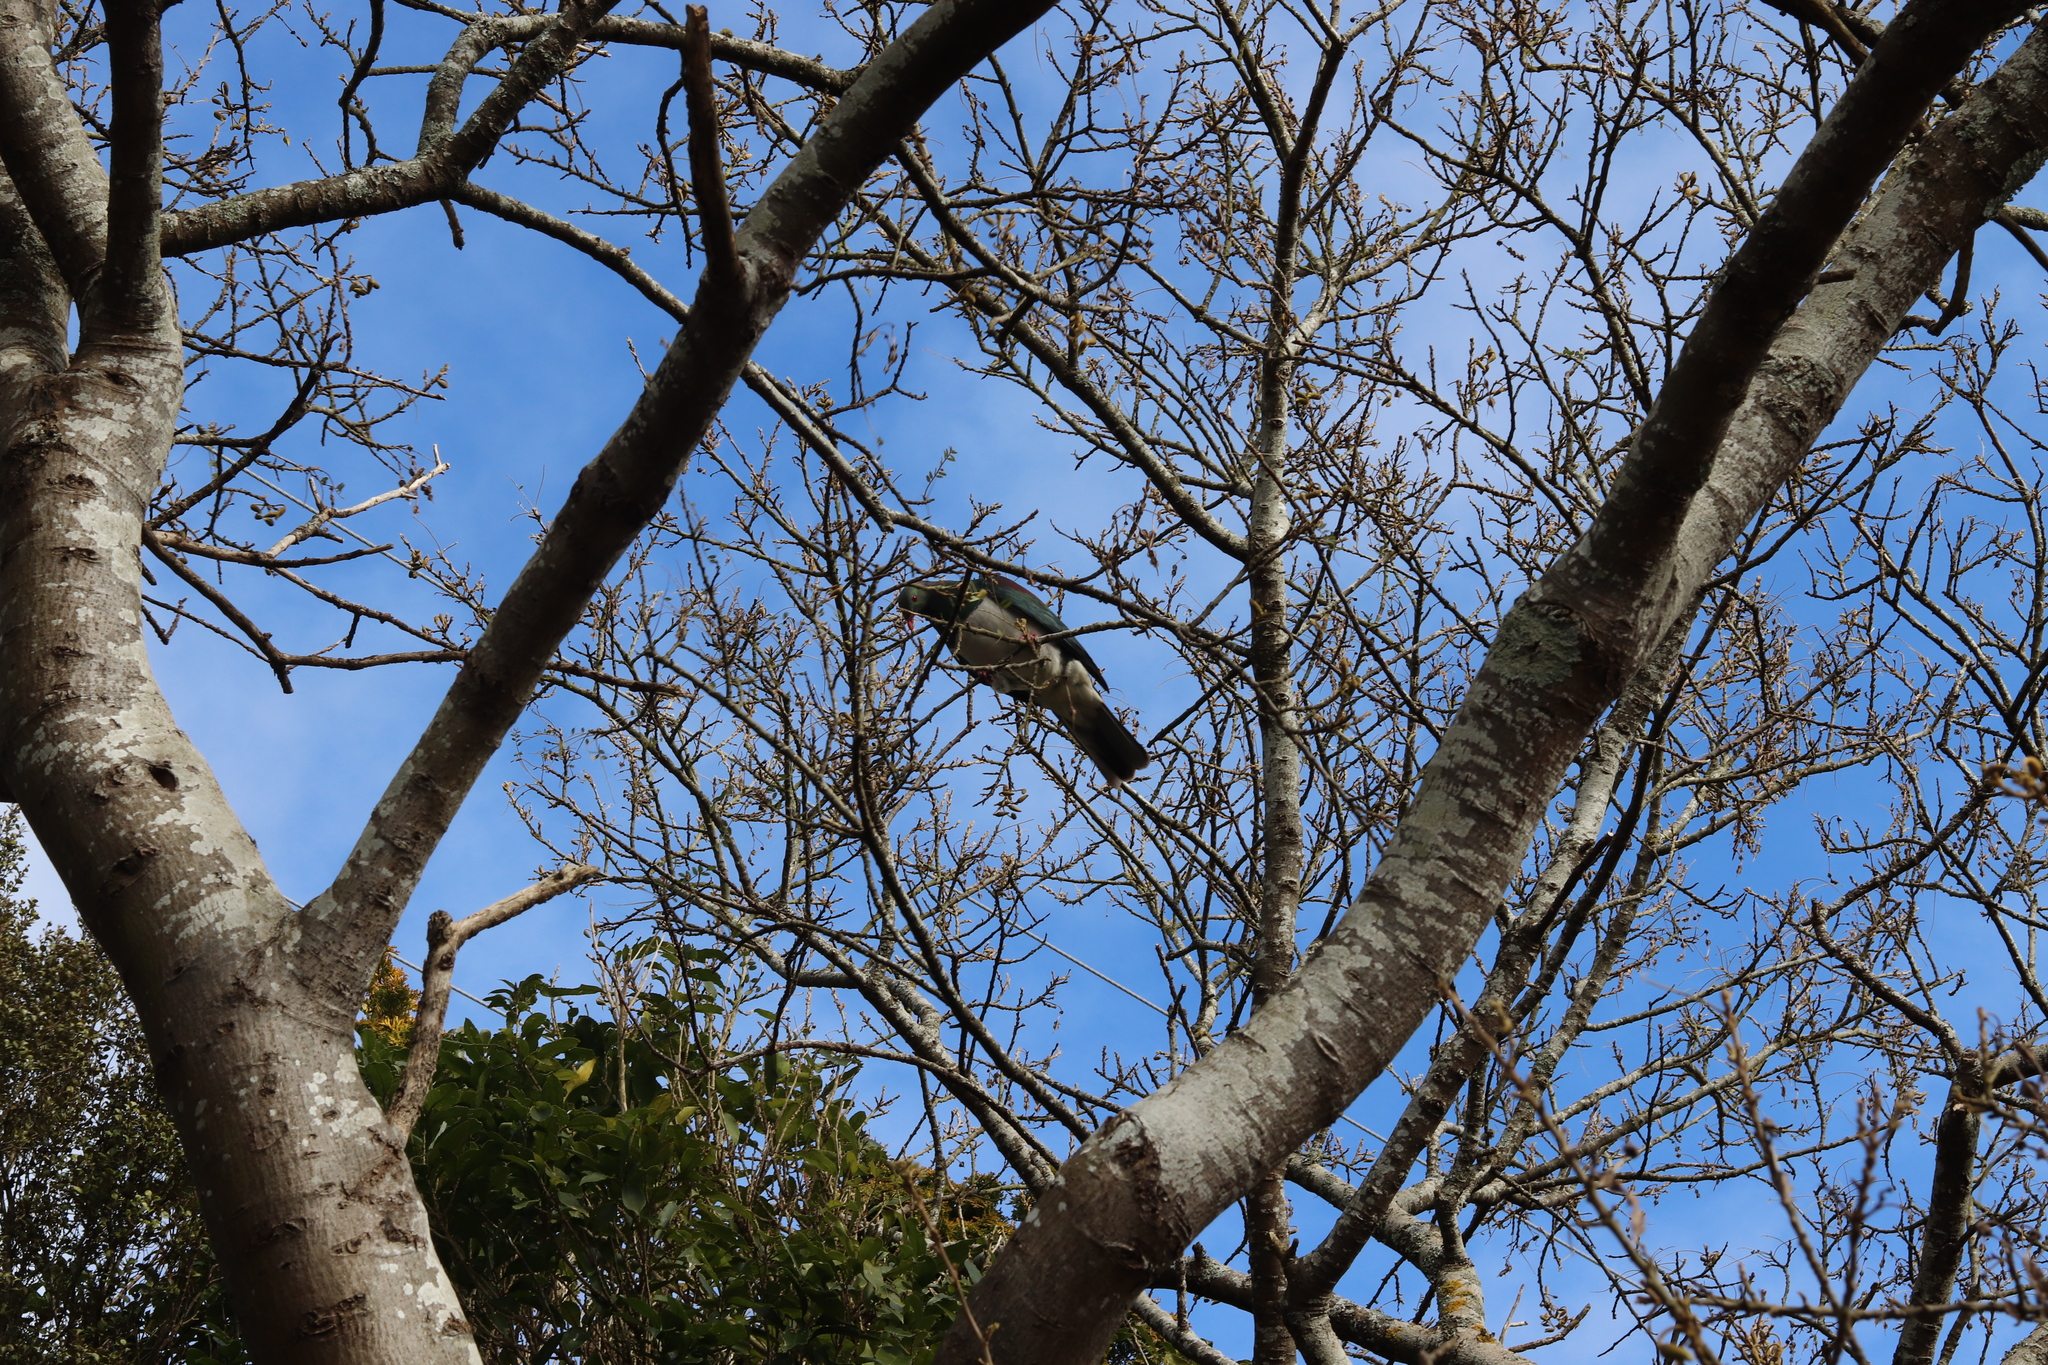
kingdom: Animalia
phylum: Chordata
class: Aves
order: Columbiformes
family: Columbidae
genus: Hemiphaga
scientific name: Hemiphaga novaeseelandiae
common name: New zealand pigeon
